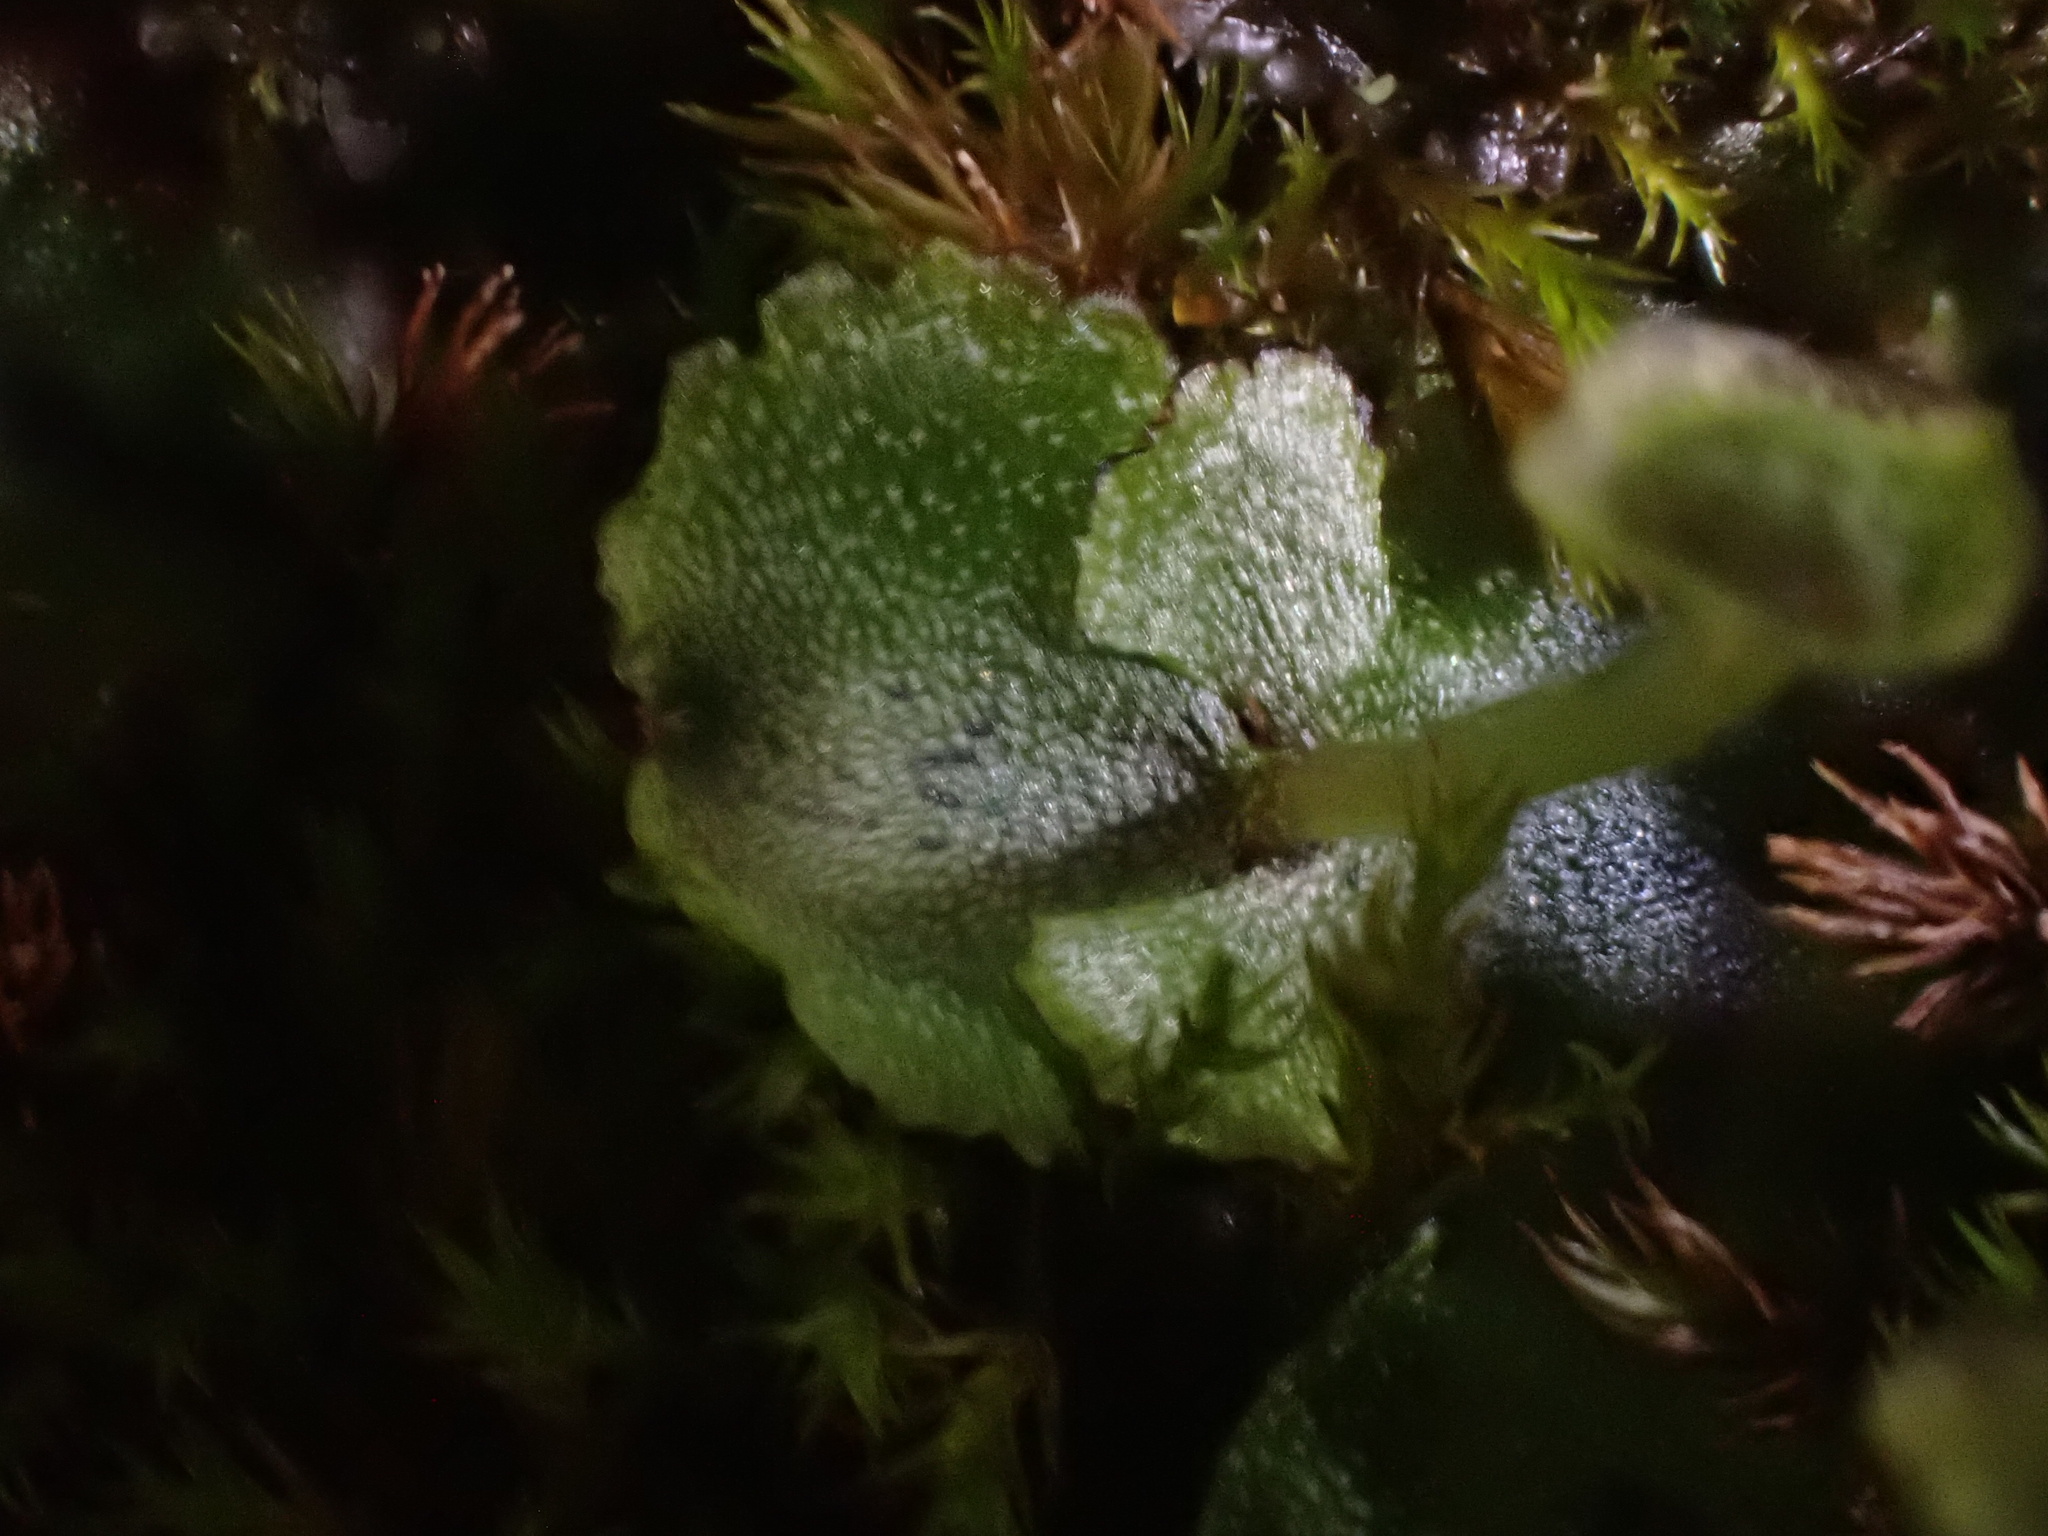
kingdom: Plantae
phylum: Marchantiophyta
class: Marchantiopsida
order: Marchantiales
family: Marchantiaceae
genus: Marchantia
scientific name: Marchantia quadrata
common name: Narrow mushroom-headed liverwort
